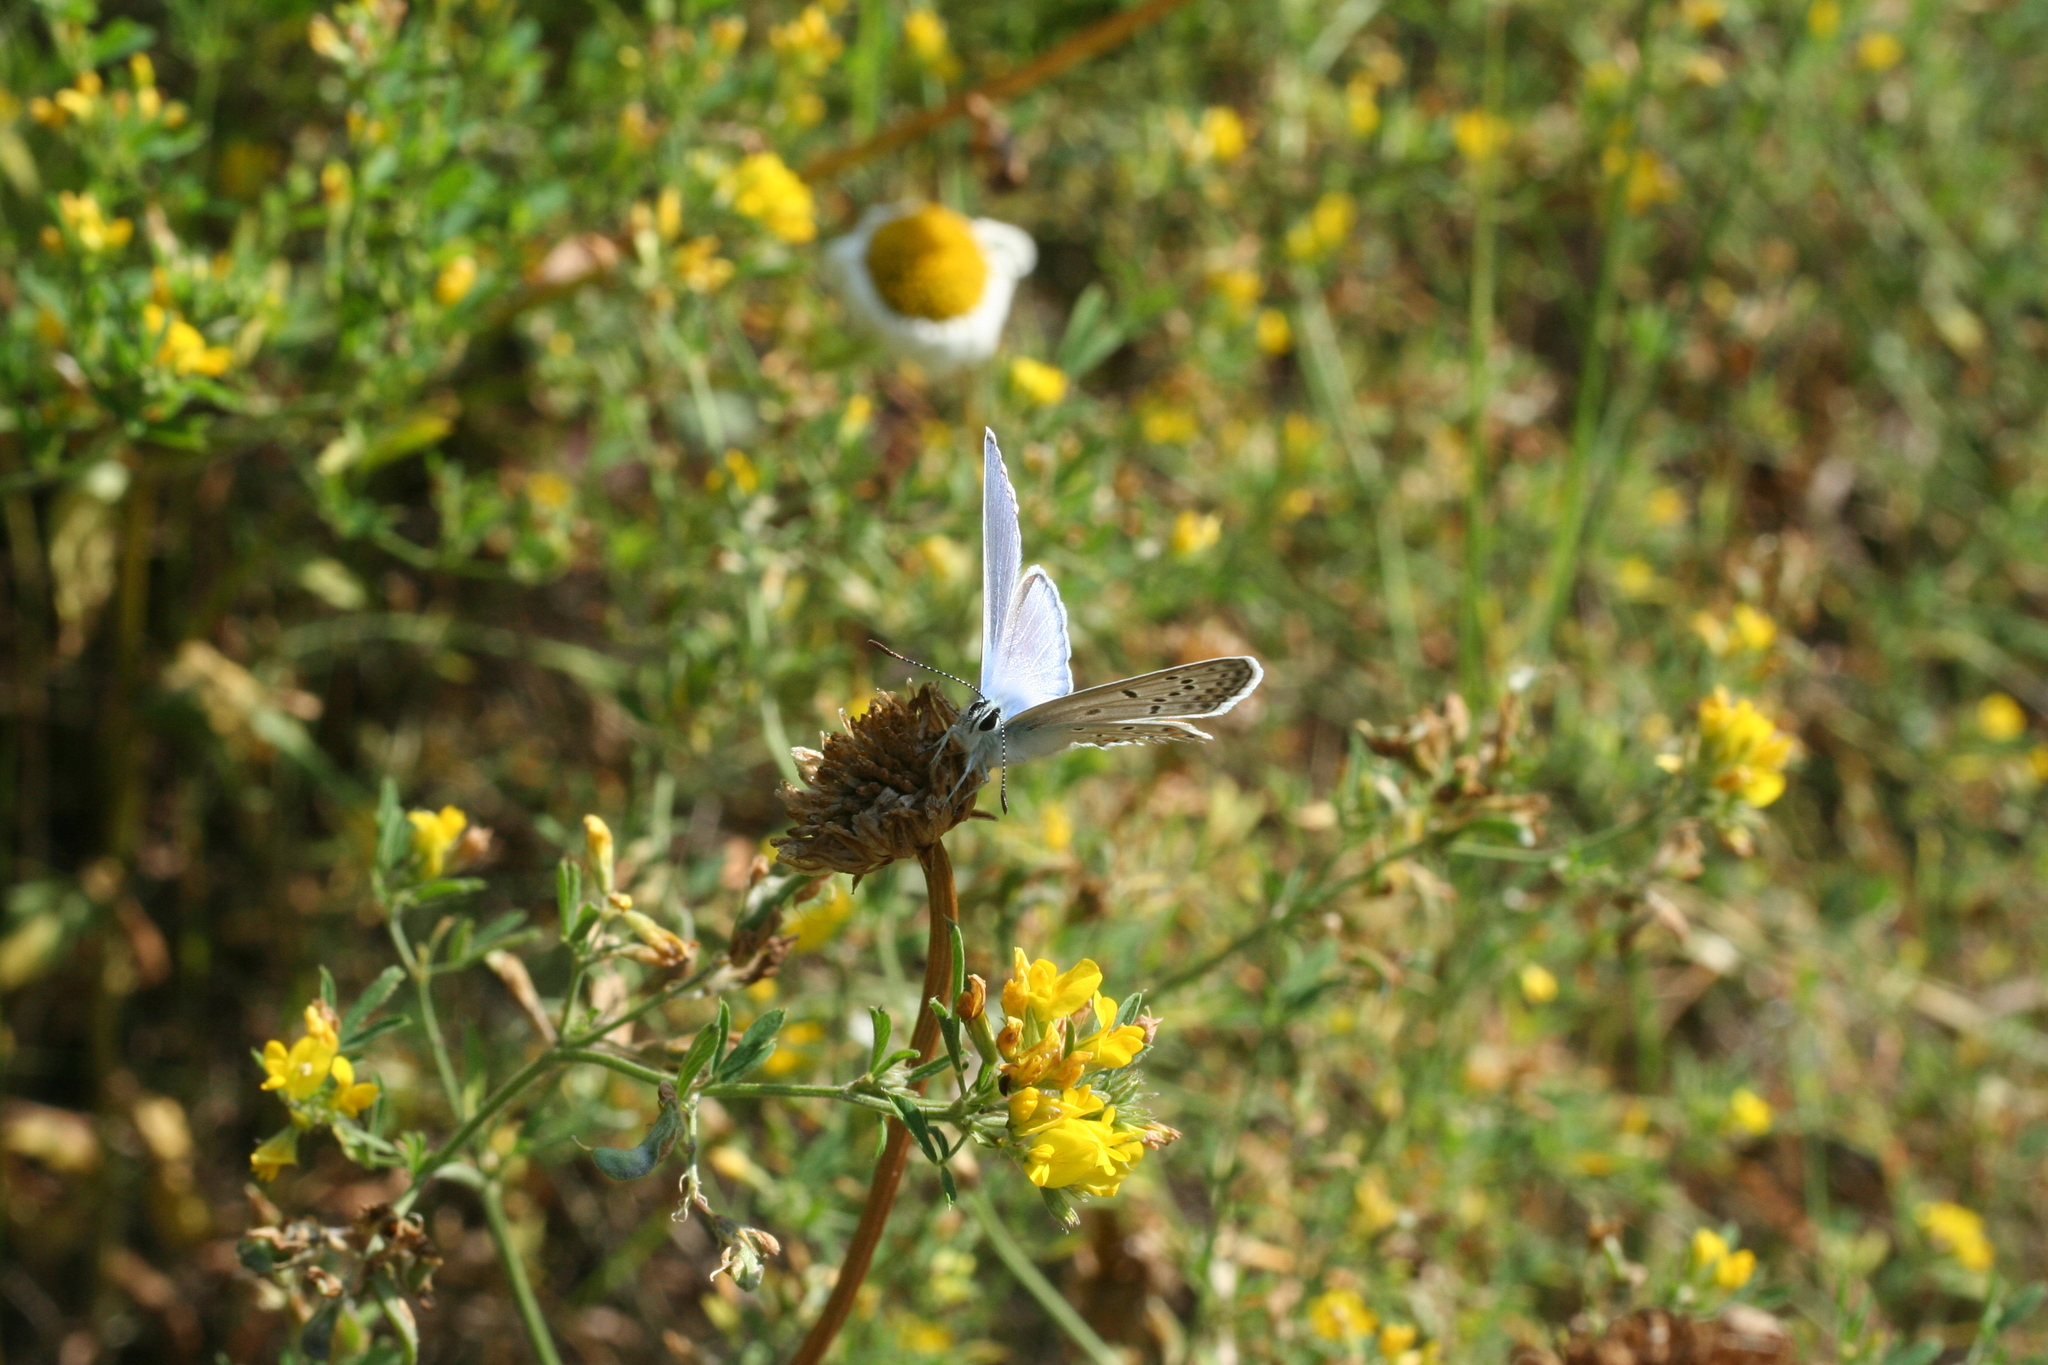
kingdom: Animalia
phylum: Arthropoda
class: Insecta
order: Lepidoptera
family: Lycaenidae
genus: Polyommatus
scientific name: Polyommatus icarus
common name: Common blue
